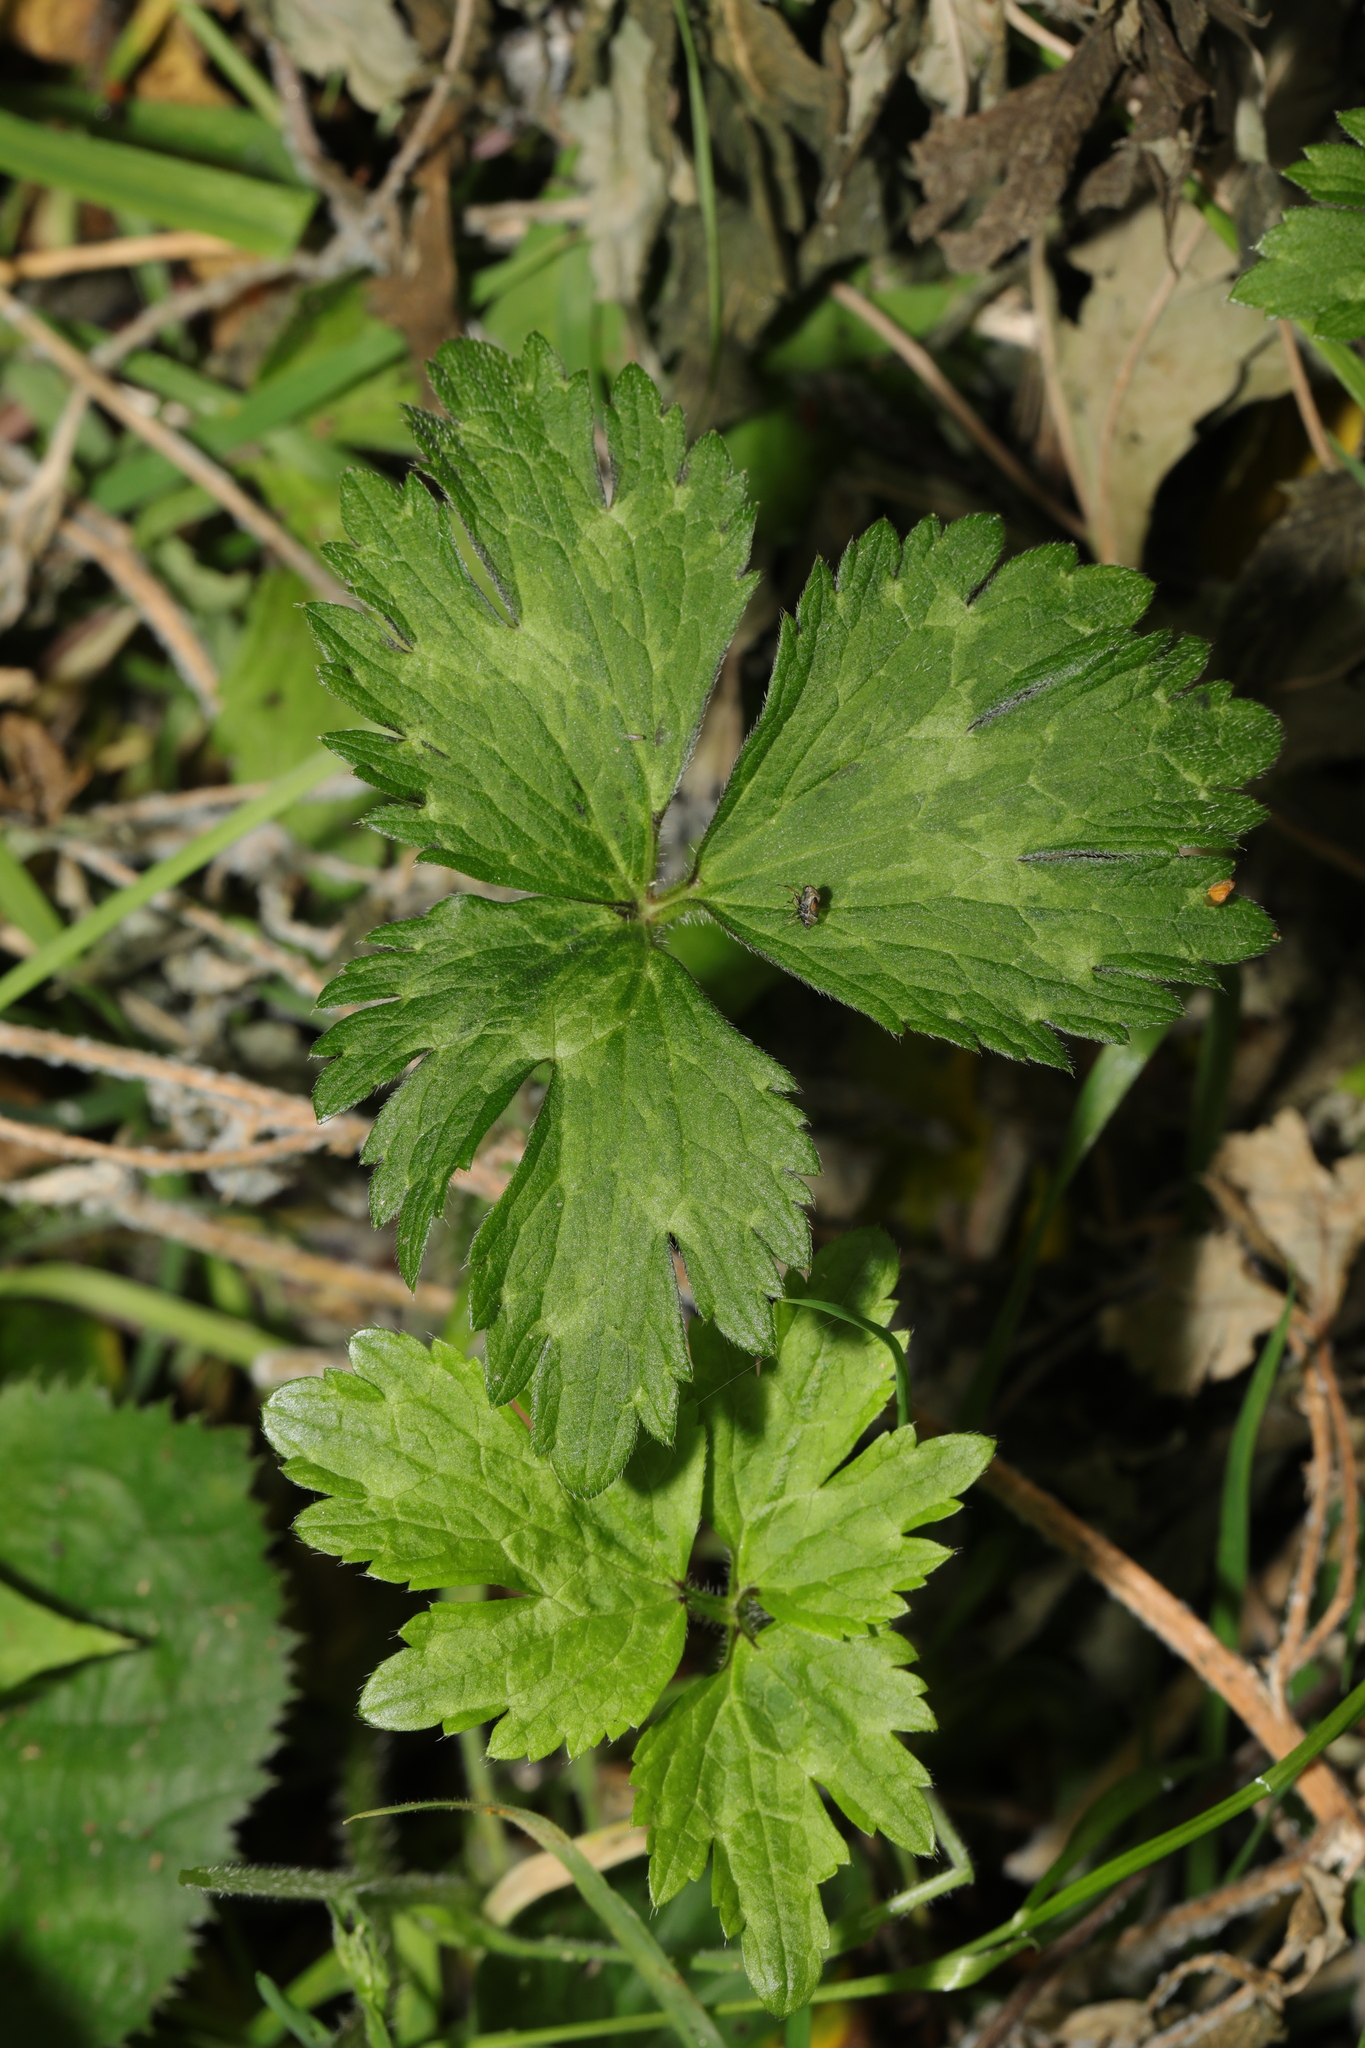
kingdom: Plantae
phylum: Tracheophyta
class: Magnoliopsida
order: Ranunculales
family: Ranunculaceae
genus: Ranunculus
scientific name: Ranunculus repens
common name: Creeping buttercup
